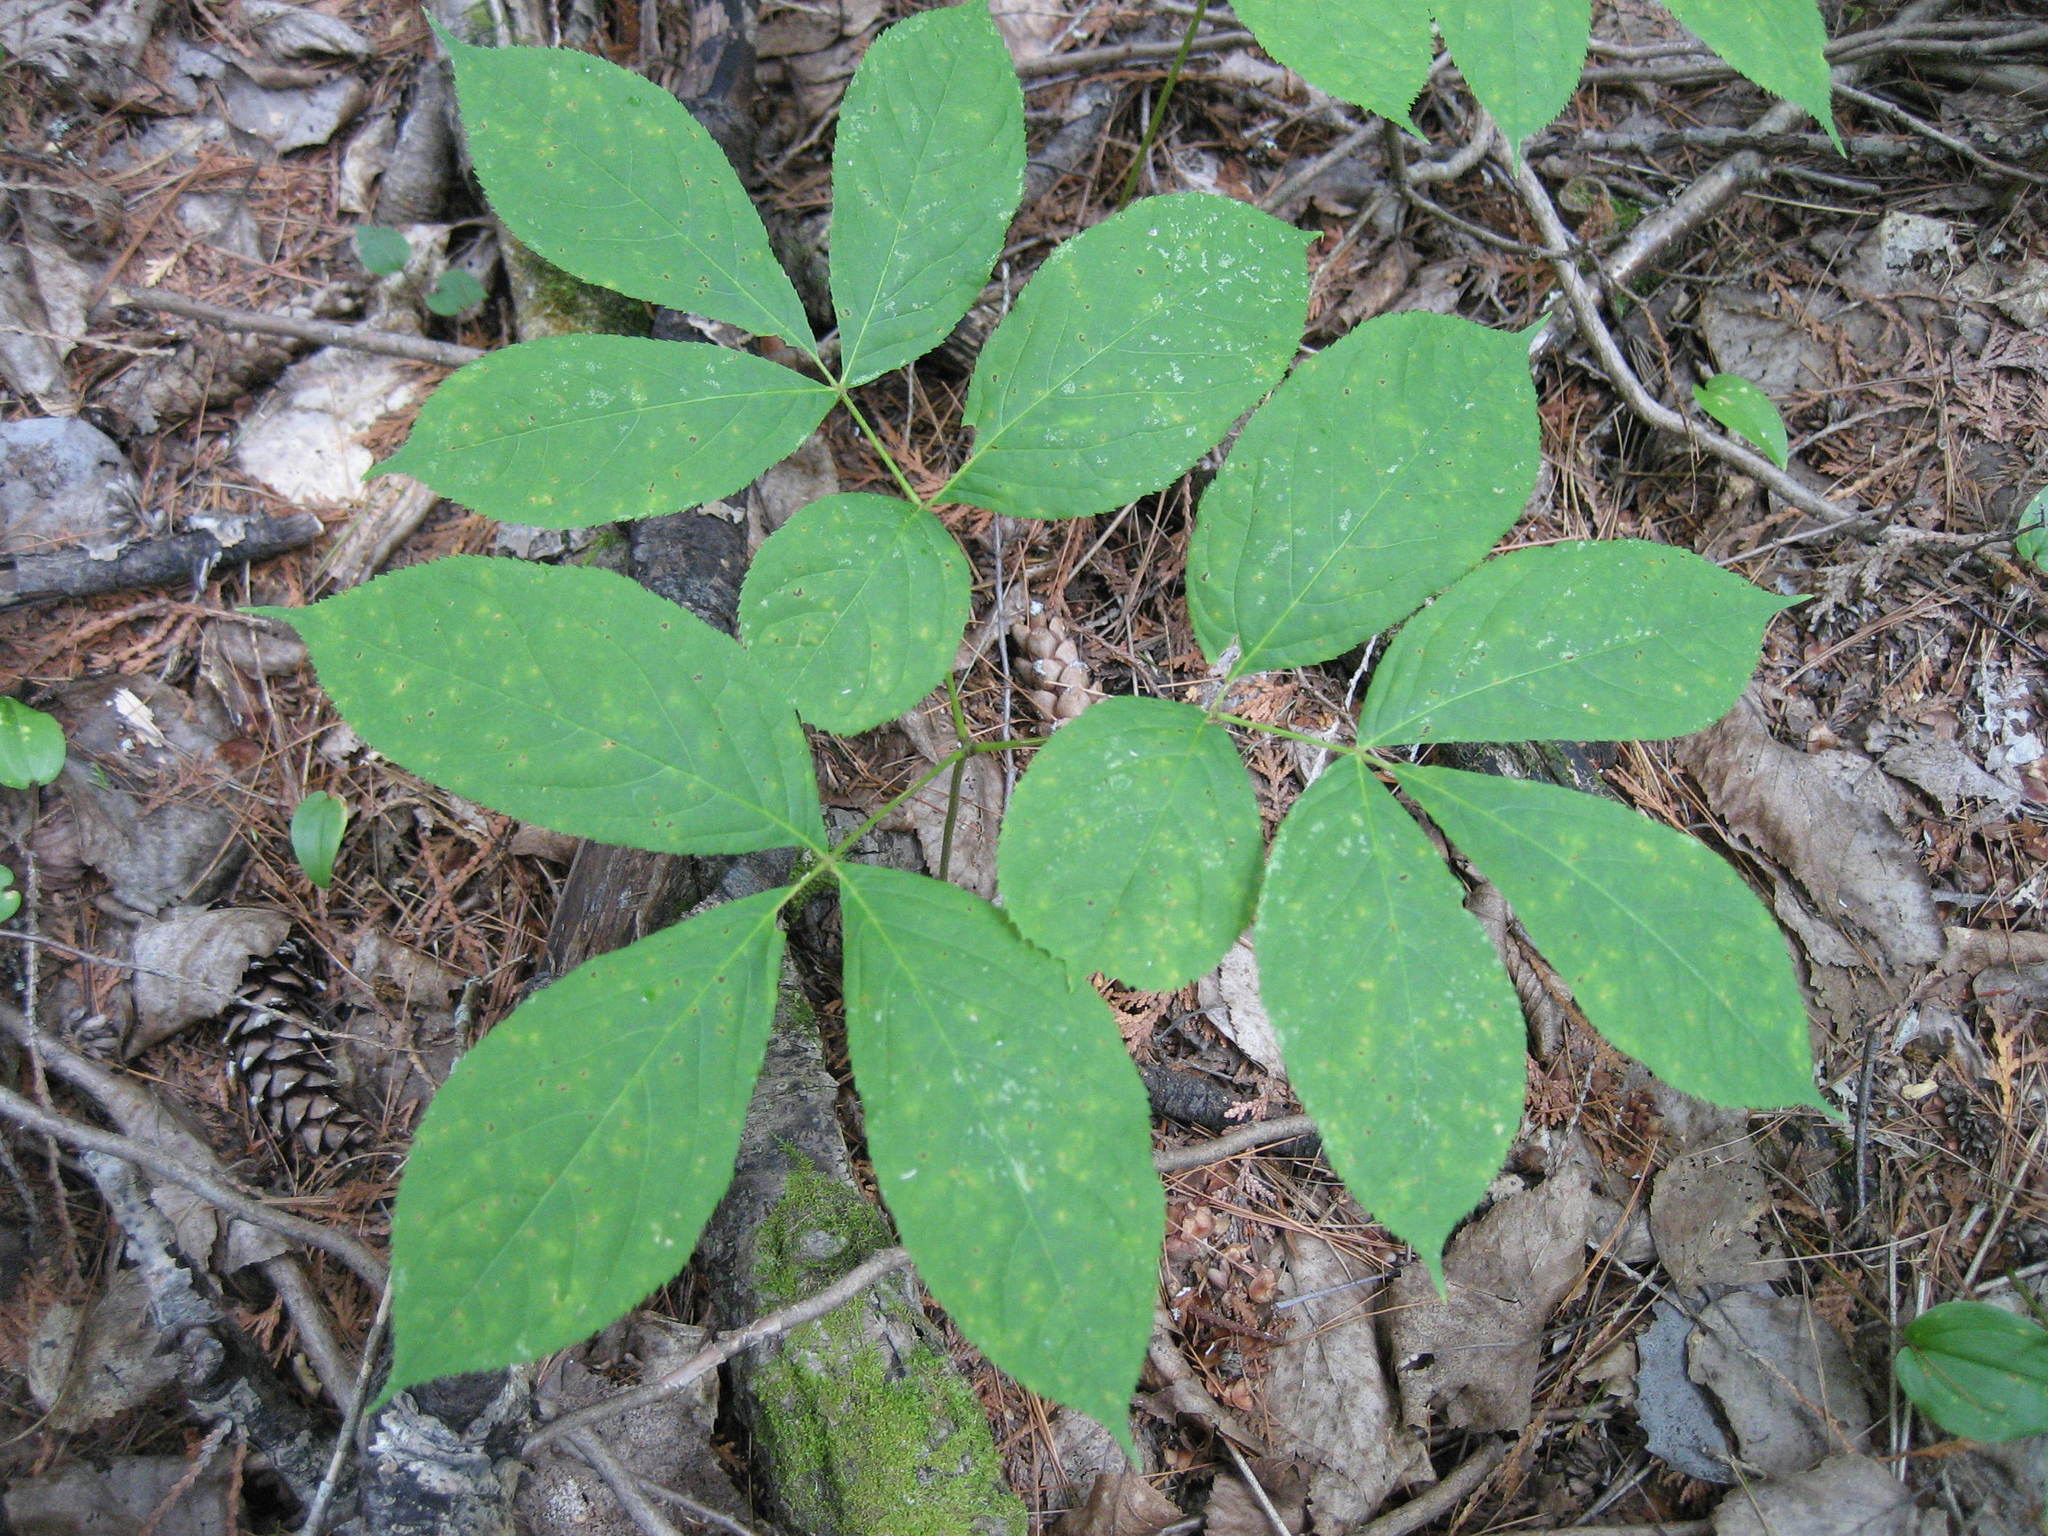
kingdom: Plantae
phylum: Tracheophyta
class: Magnoliopsida
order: Apiales
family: Araliaceae
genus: Aralia
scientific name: Aralia nudicaulis
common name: Wild sarsaparilla
